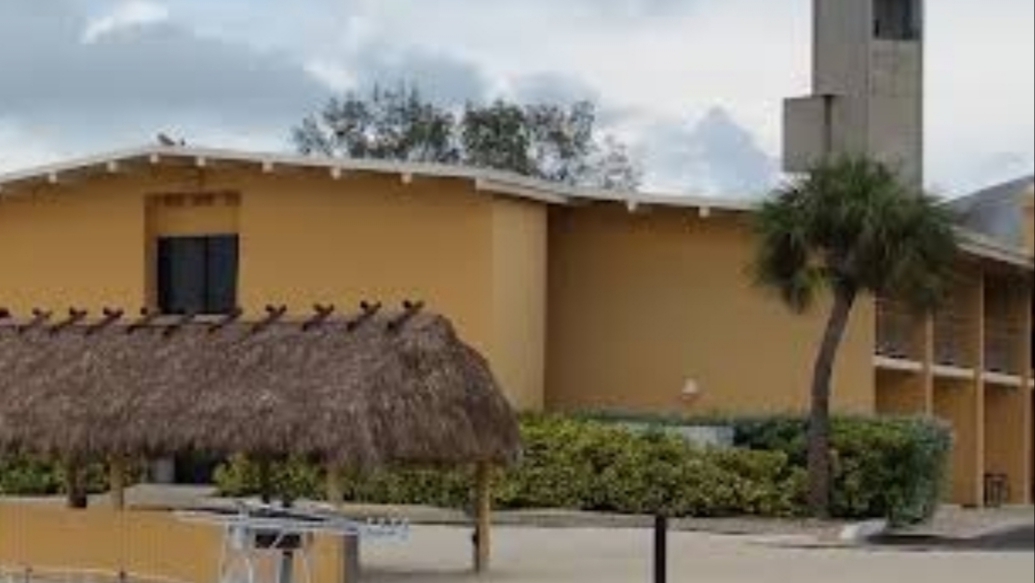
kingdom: Plantae
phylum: Tracheophyta
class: Liliopsida
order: Arecales
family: Arecaceae
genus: Sabal
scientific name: Sabal palmetto
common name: Blue palmetto
